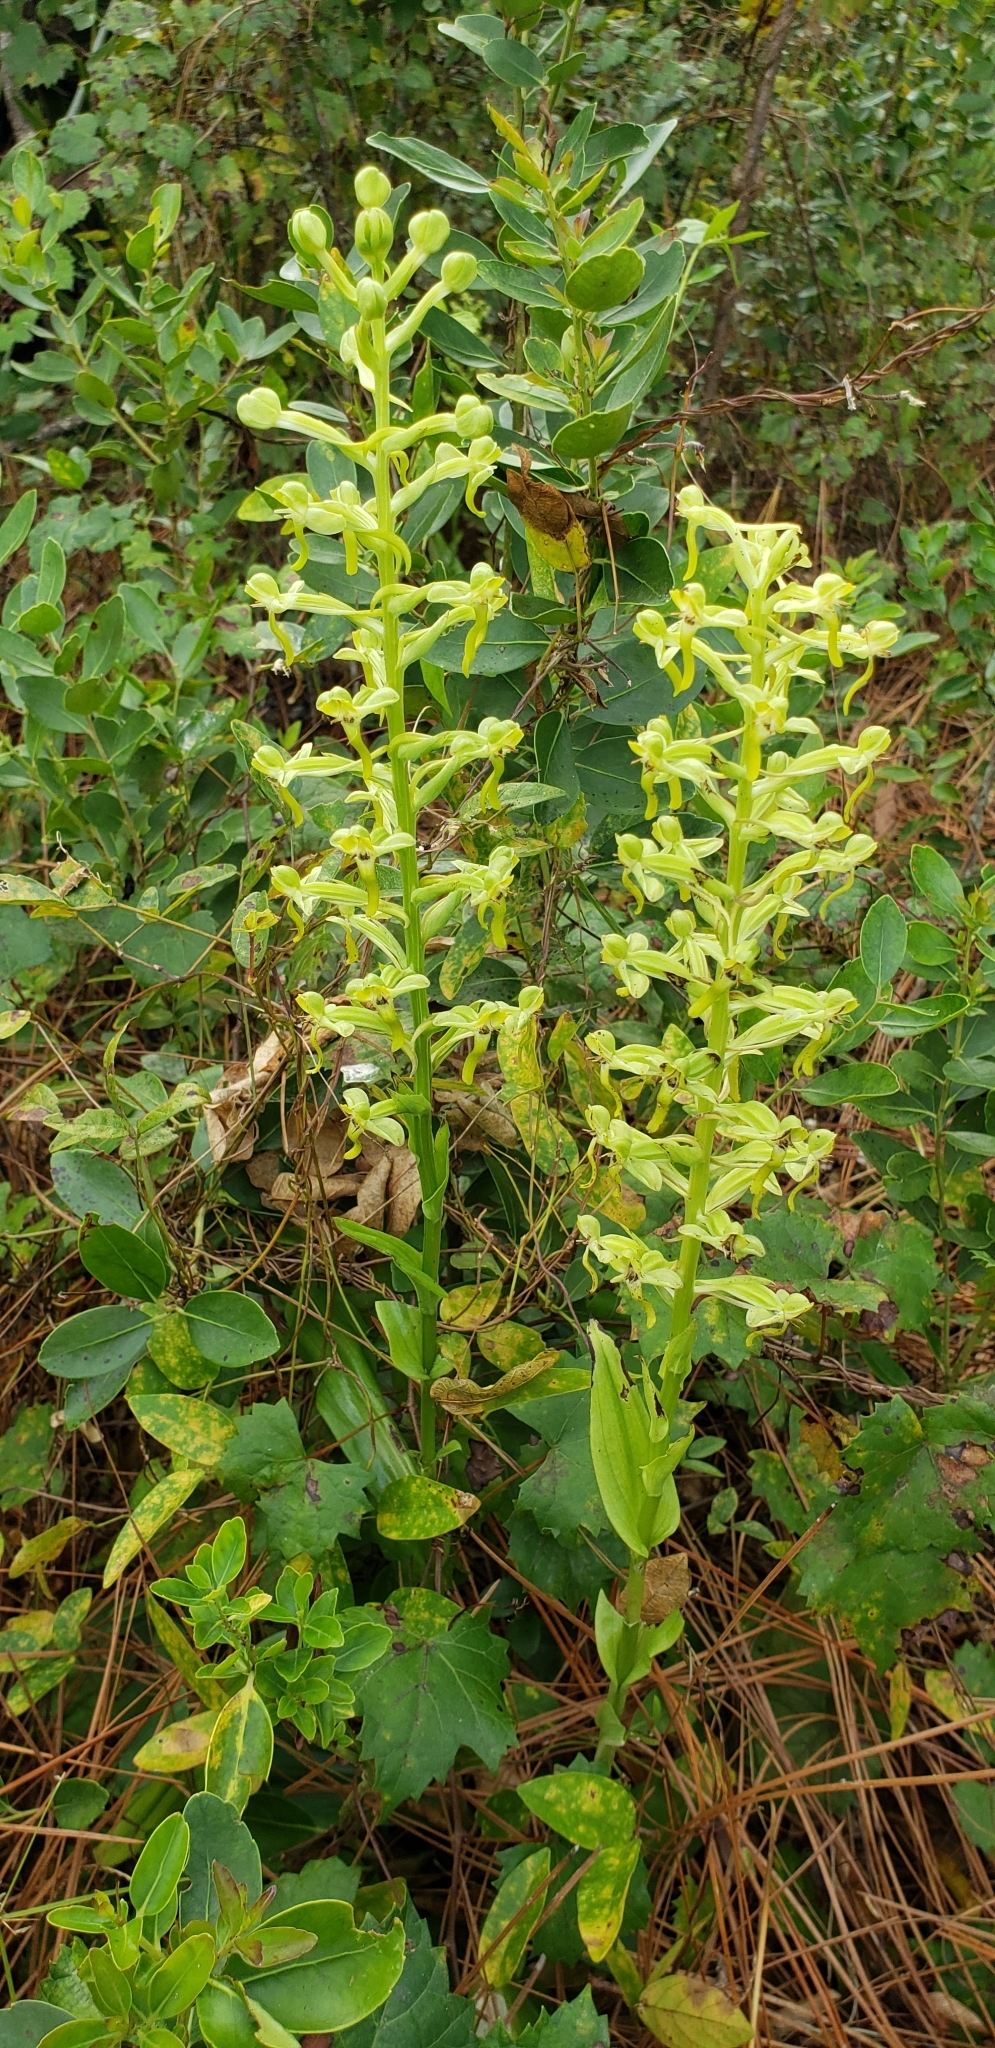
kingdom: Plantae
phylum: Tracheophyta
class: Liliopsida
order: Asparagales
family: Orchidaceae
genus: Habenaria
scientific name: Habenaria floribunda
